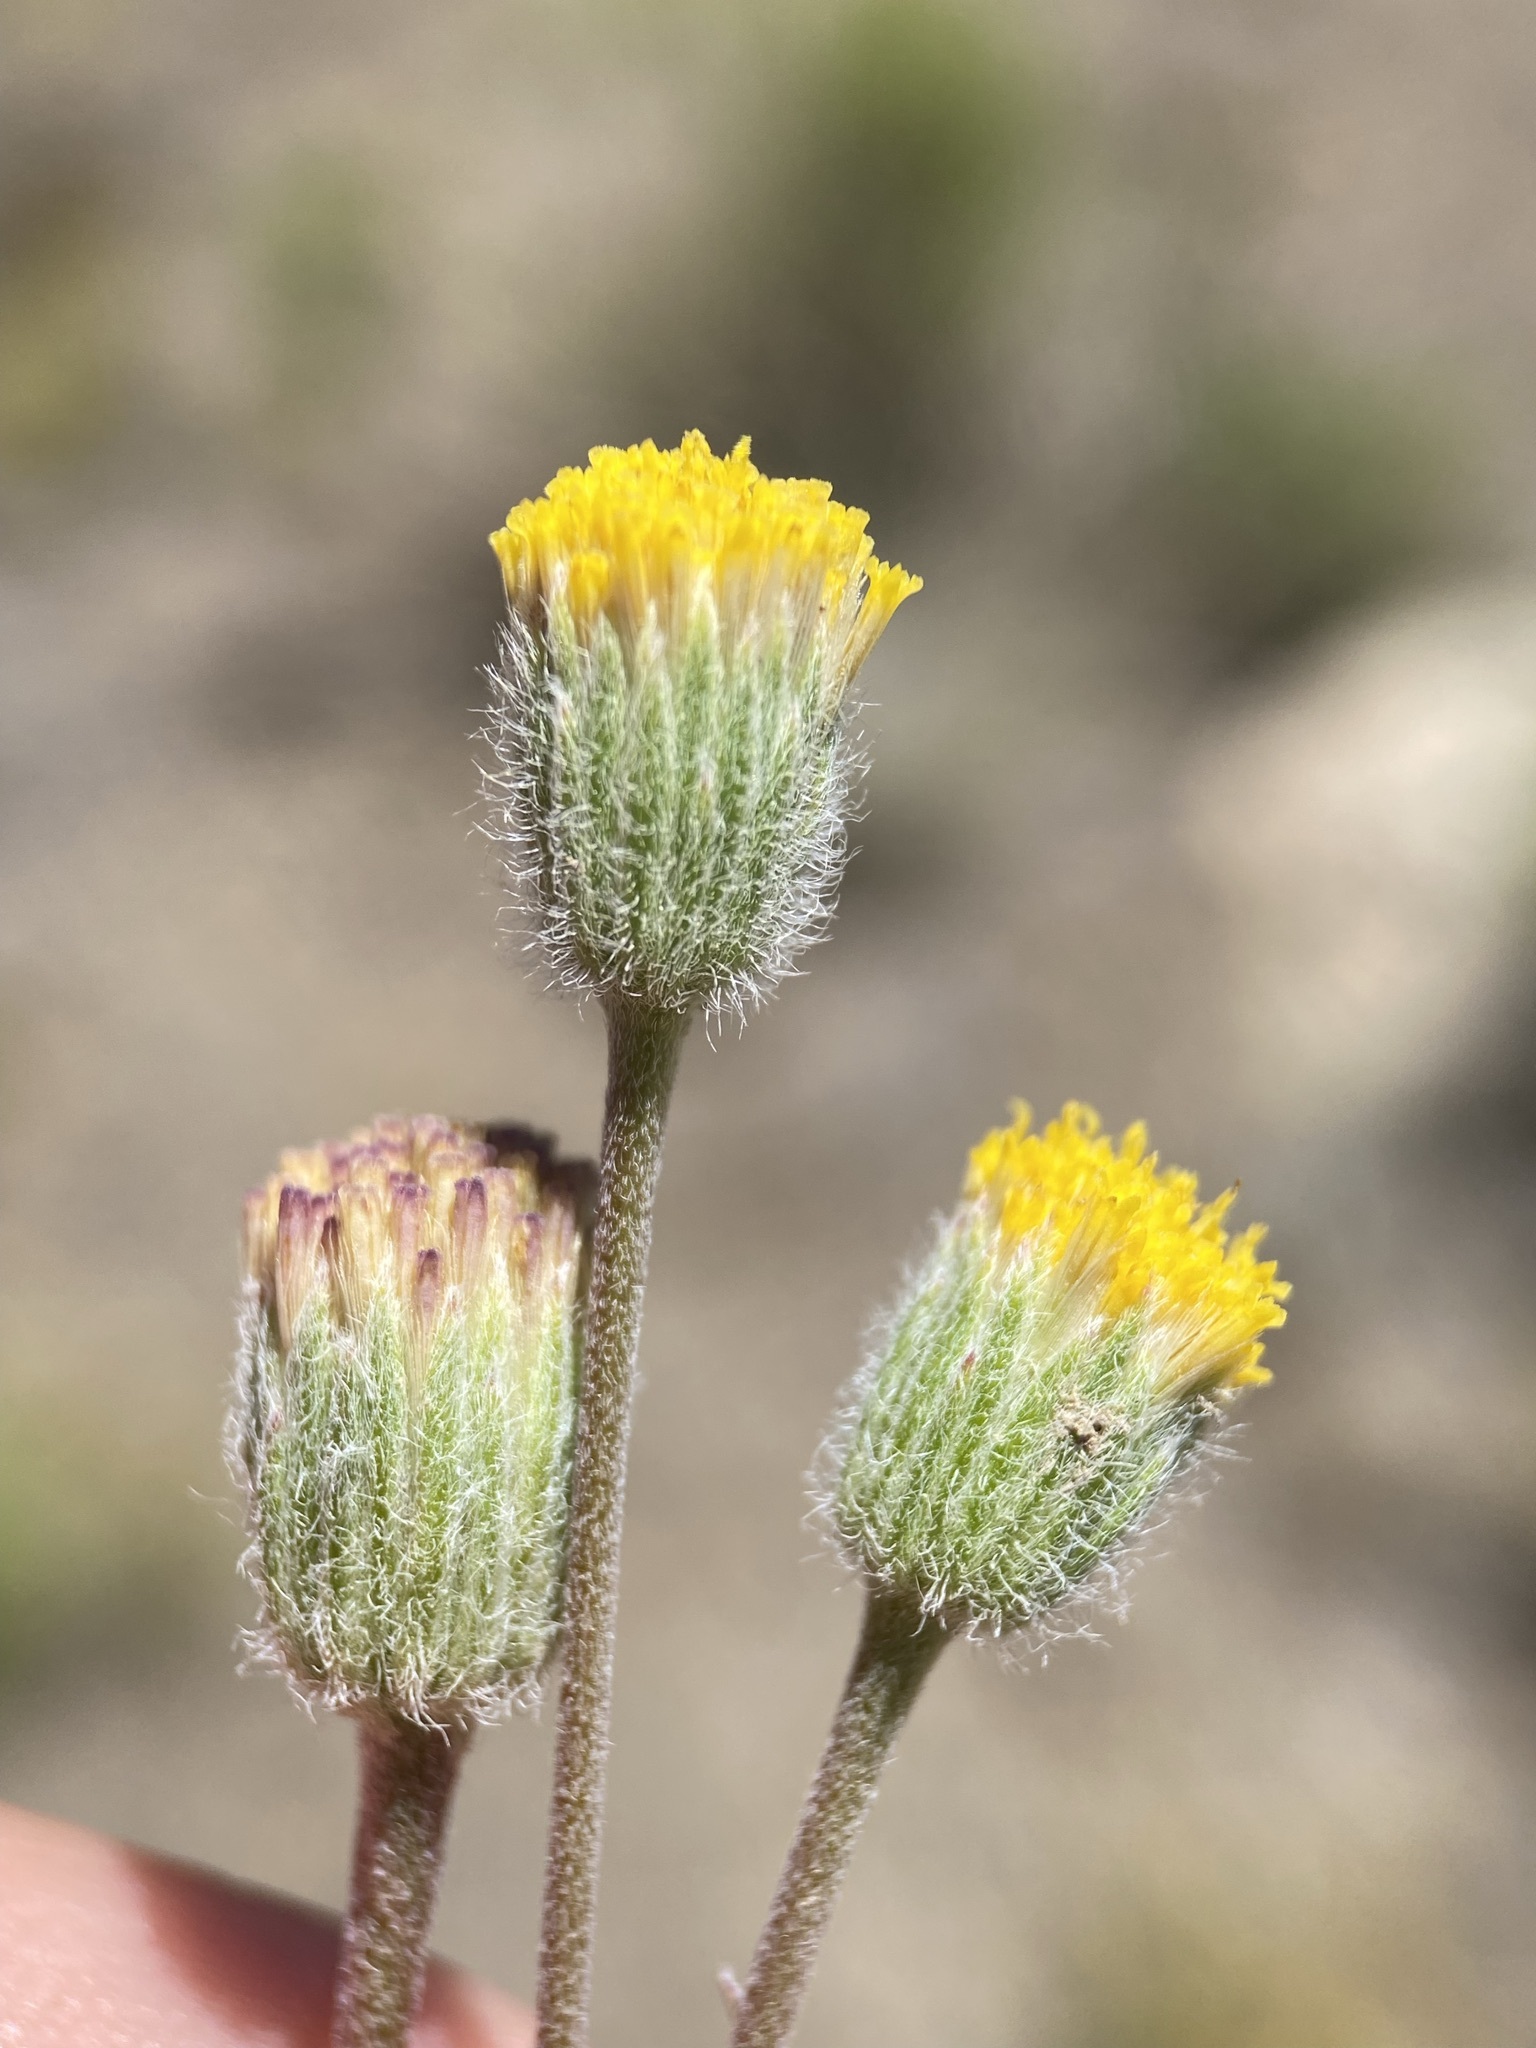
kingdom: Plantae
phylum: Tracheophyta
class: Magnoliopsida
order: Asterales
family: Asteraceae
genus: Erigeron
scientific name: Erigeron bloomeri
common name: Bloomer's fleabane
